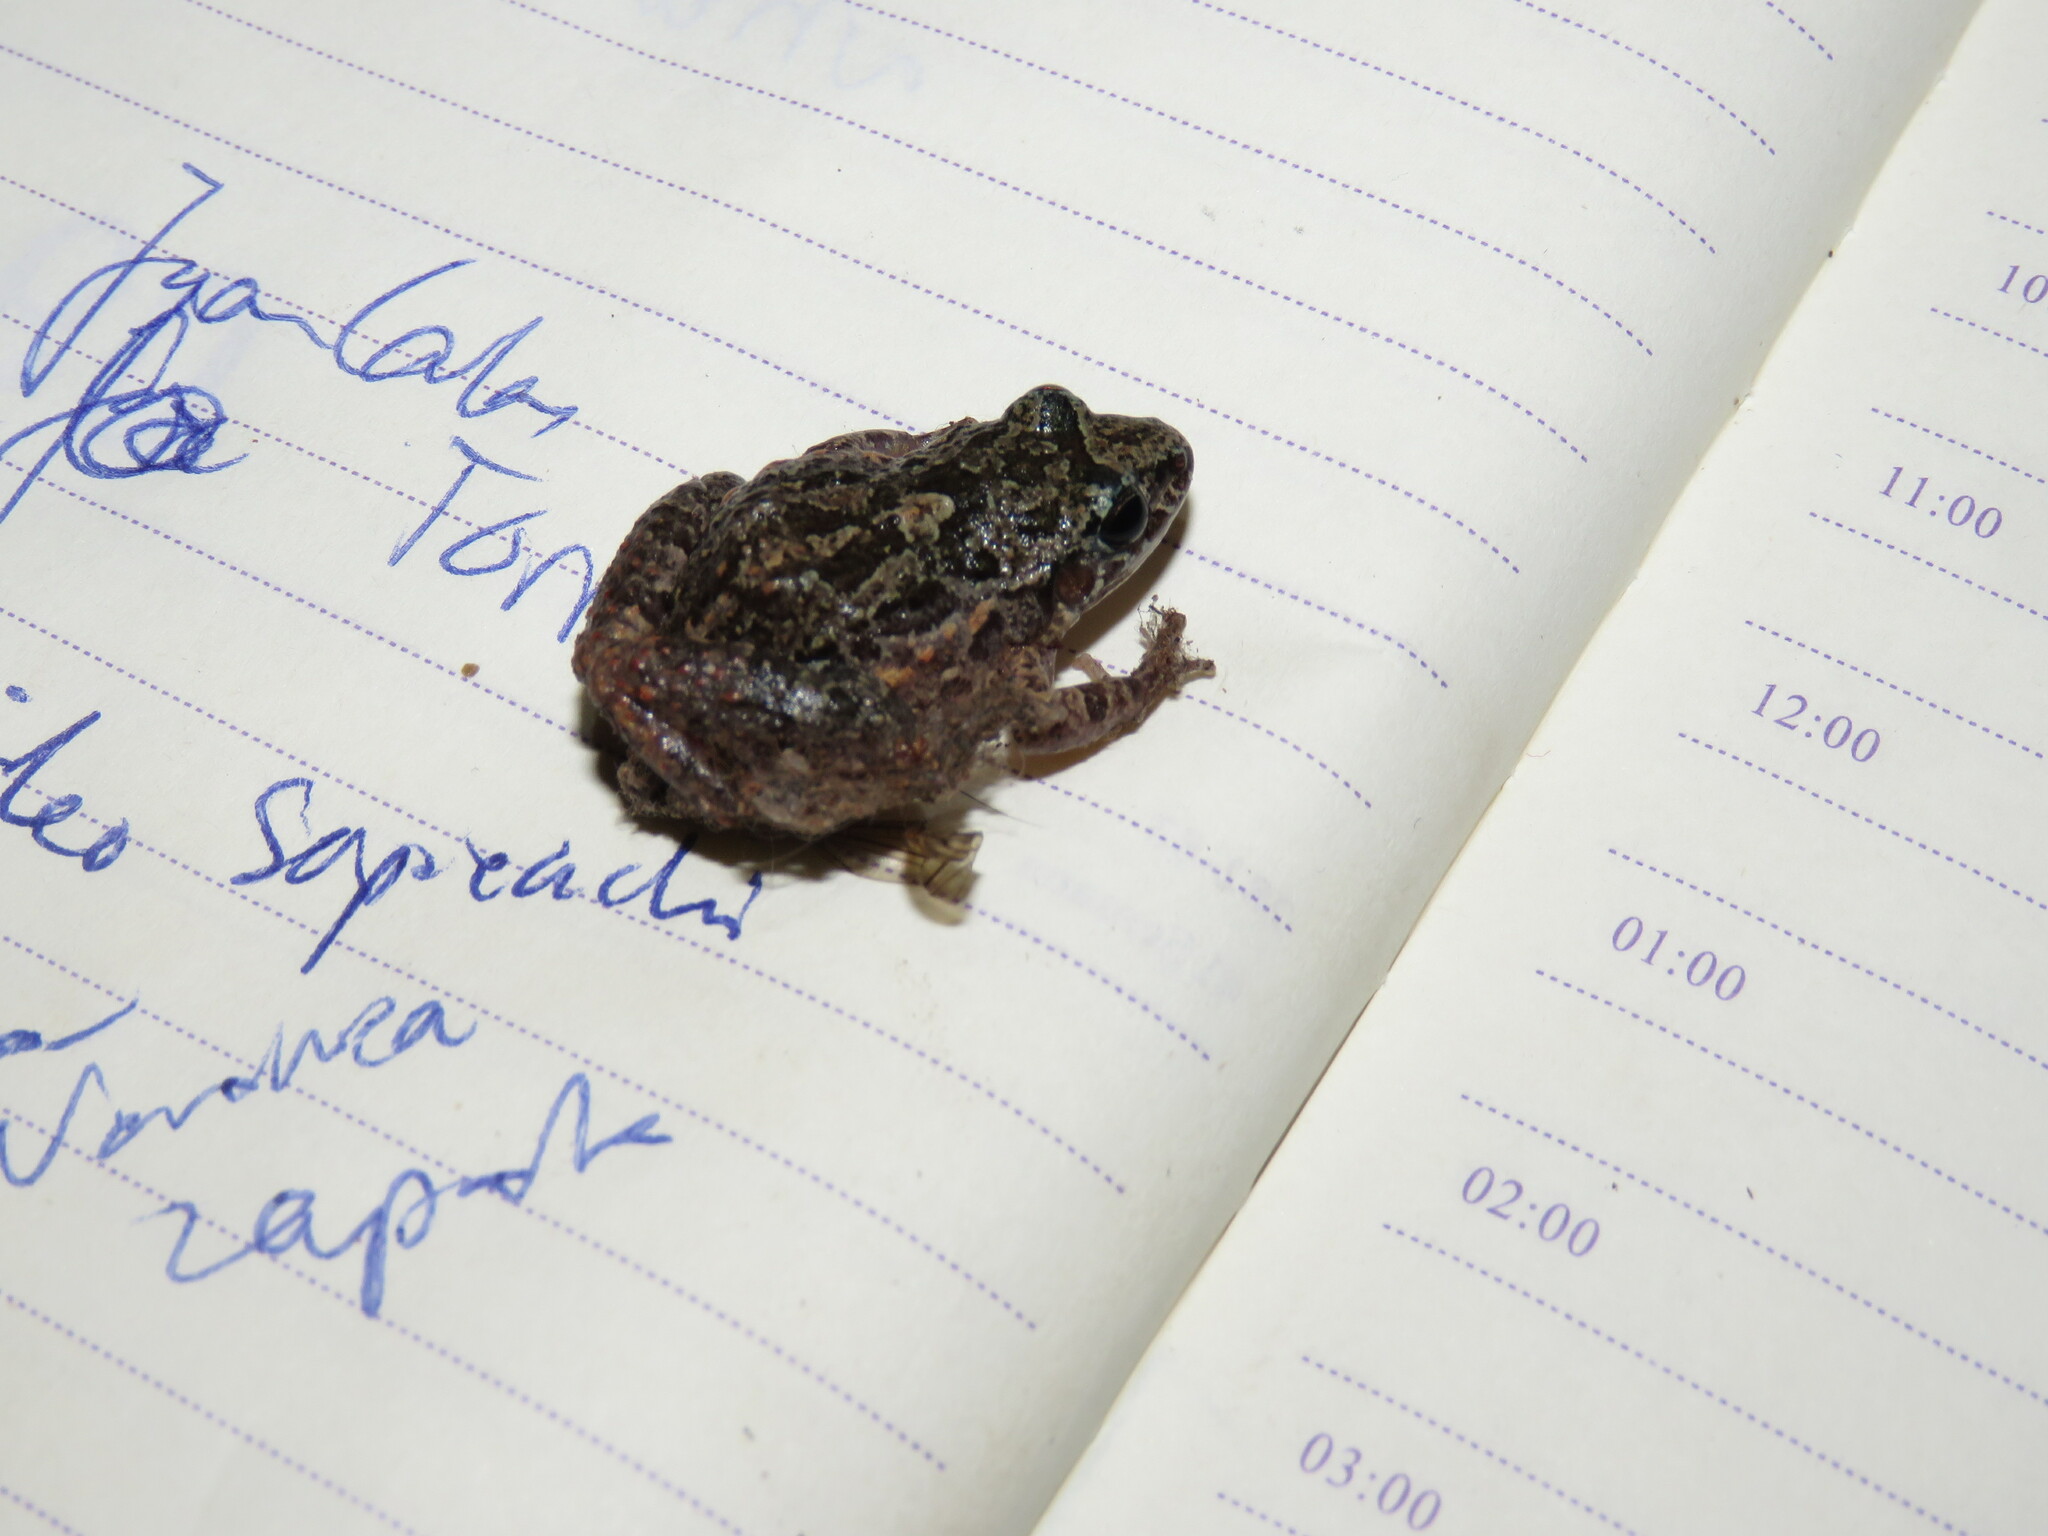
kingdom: Animalia
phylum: Chordata
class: Amphibia
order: Anura
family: Leptodactylidae
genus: Adenomera
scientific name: Adenomera chicomendesi
